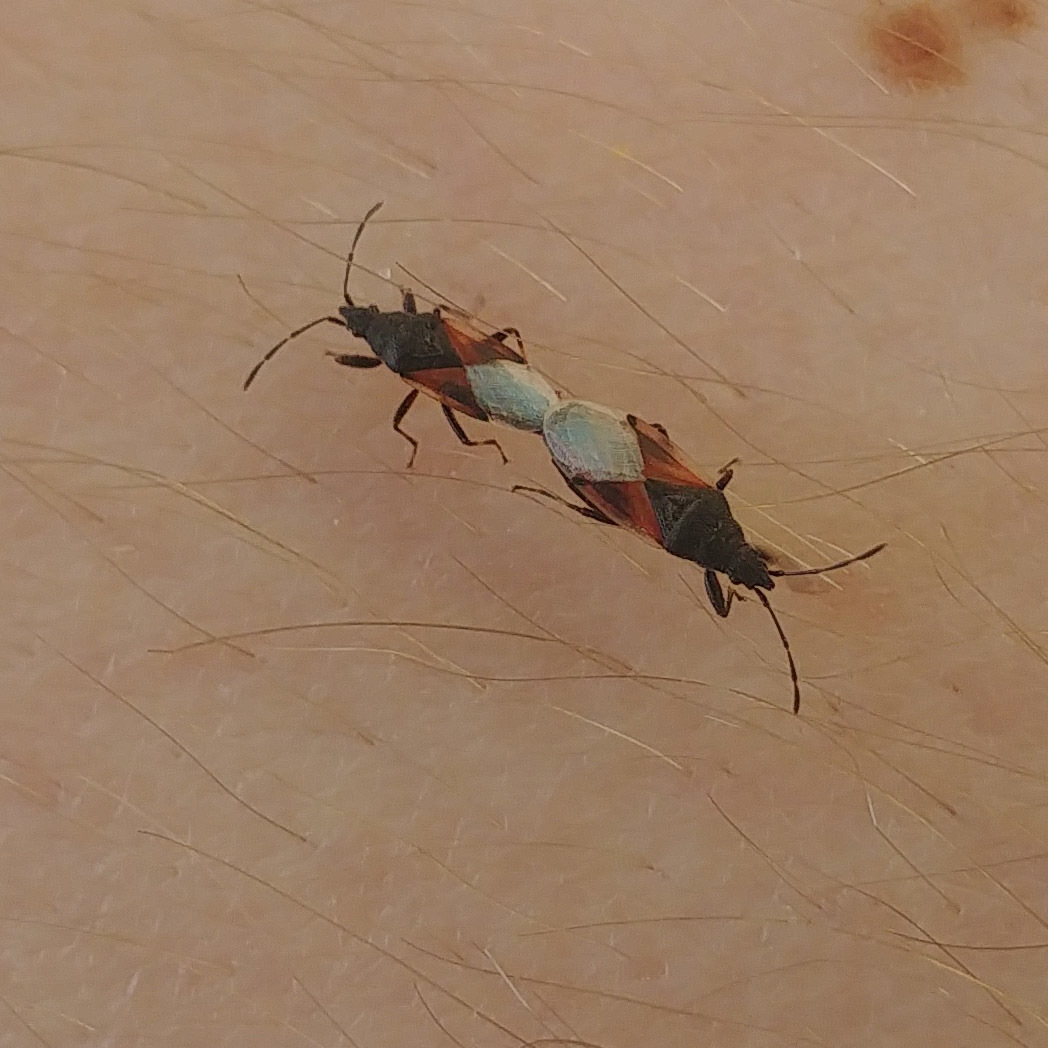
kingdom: Animalia
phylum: Arthropoda
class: Insecta
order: Hemiptera
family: Oxycarenidae
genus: Oxycarenus
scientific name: Oxycarenus lavaterae
